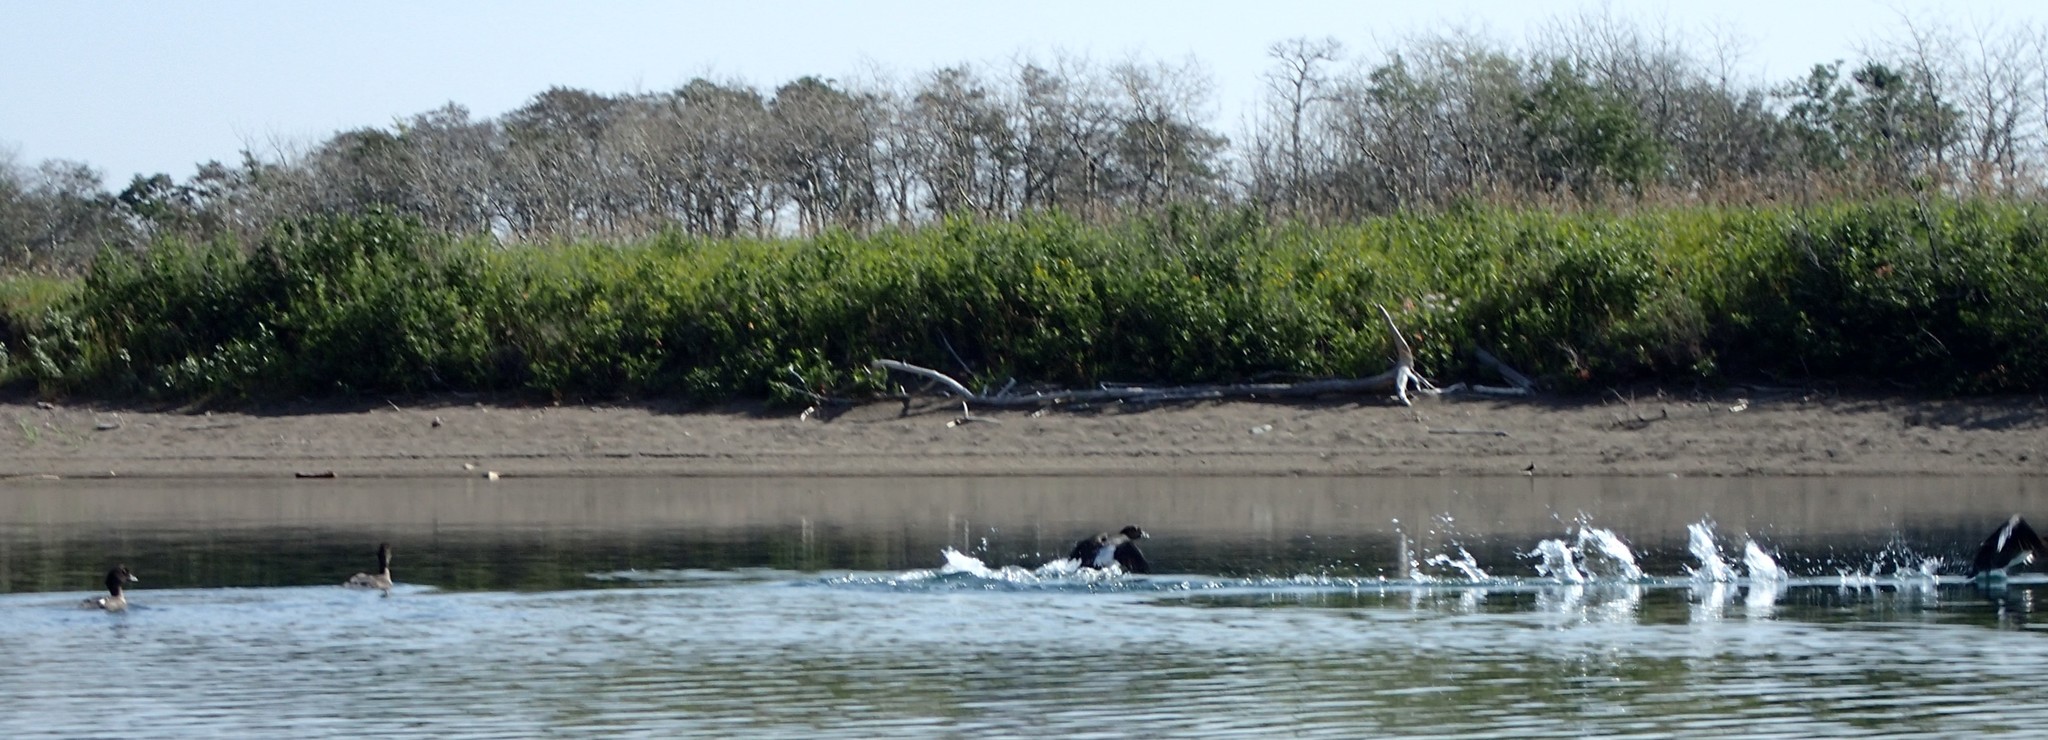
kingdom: Animalia
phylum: Chordata
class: Aves
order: Anseriformes
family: Anatidae
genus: Bucephala
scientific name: Bucephala islandica
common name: Barrow's goldeneye
